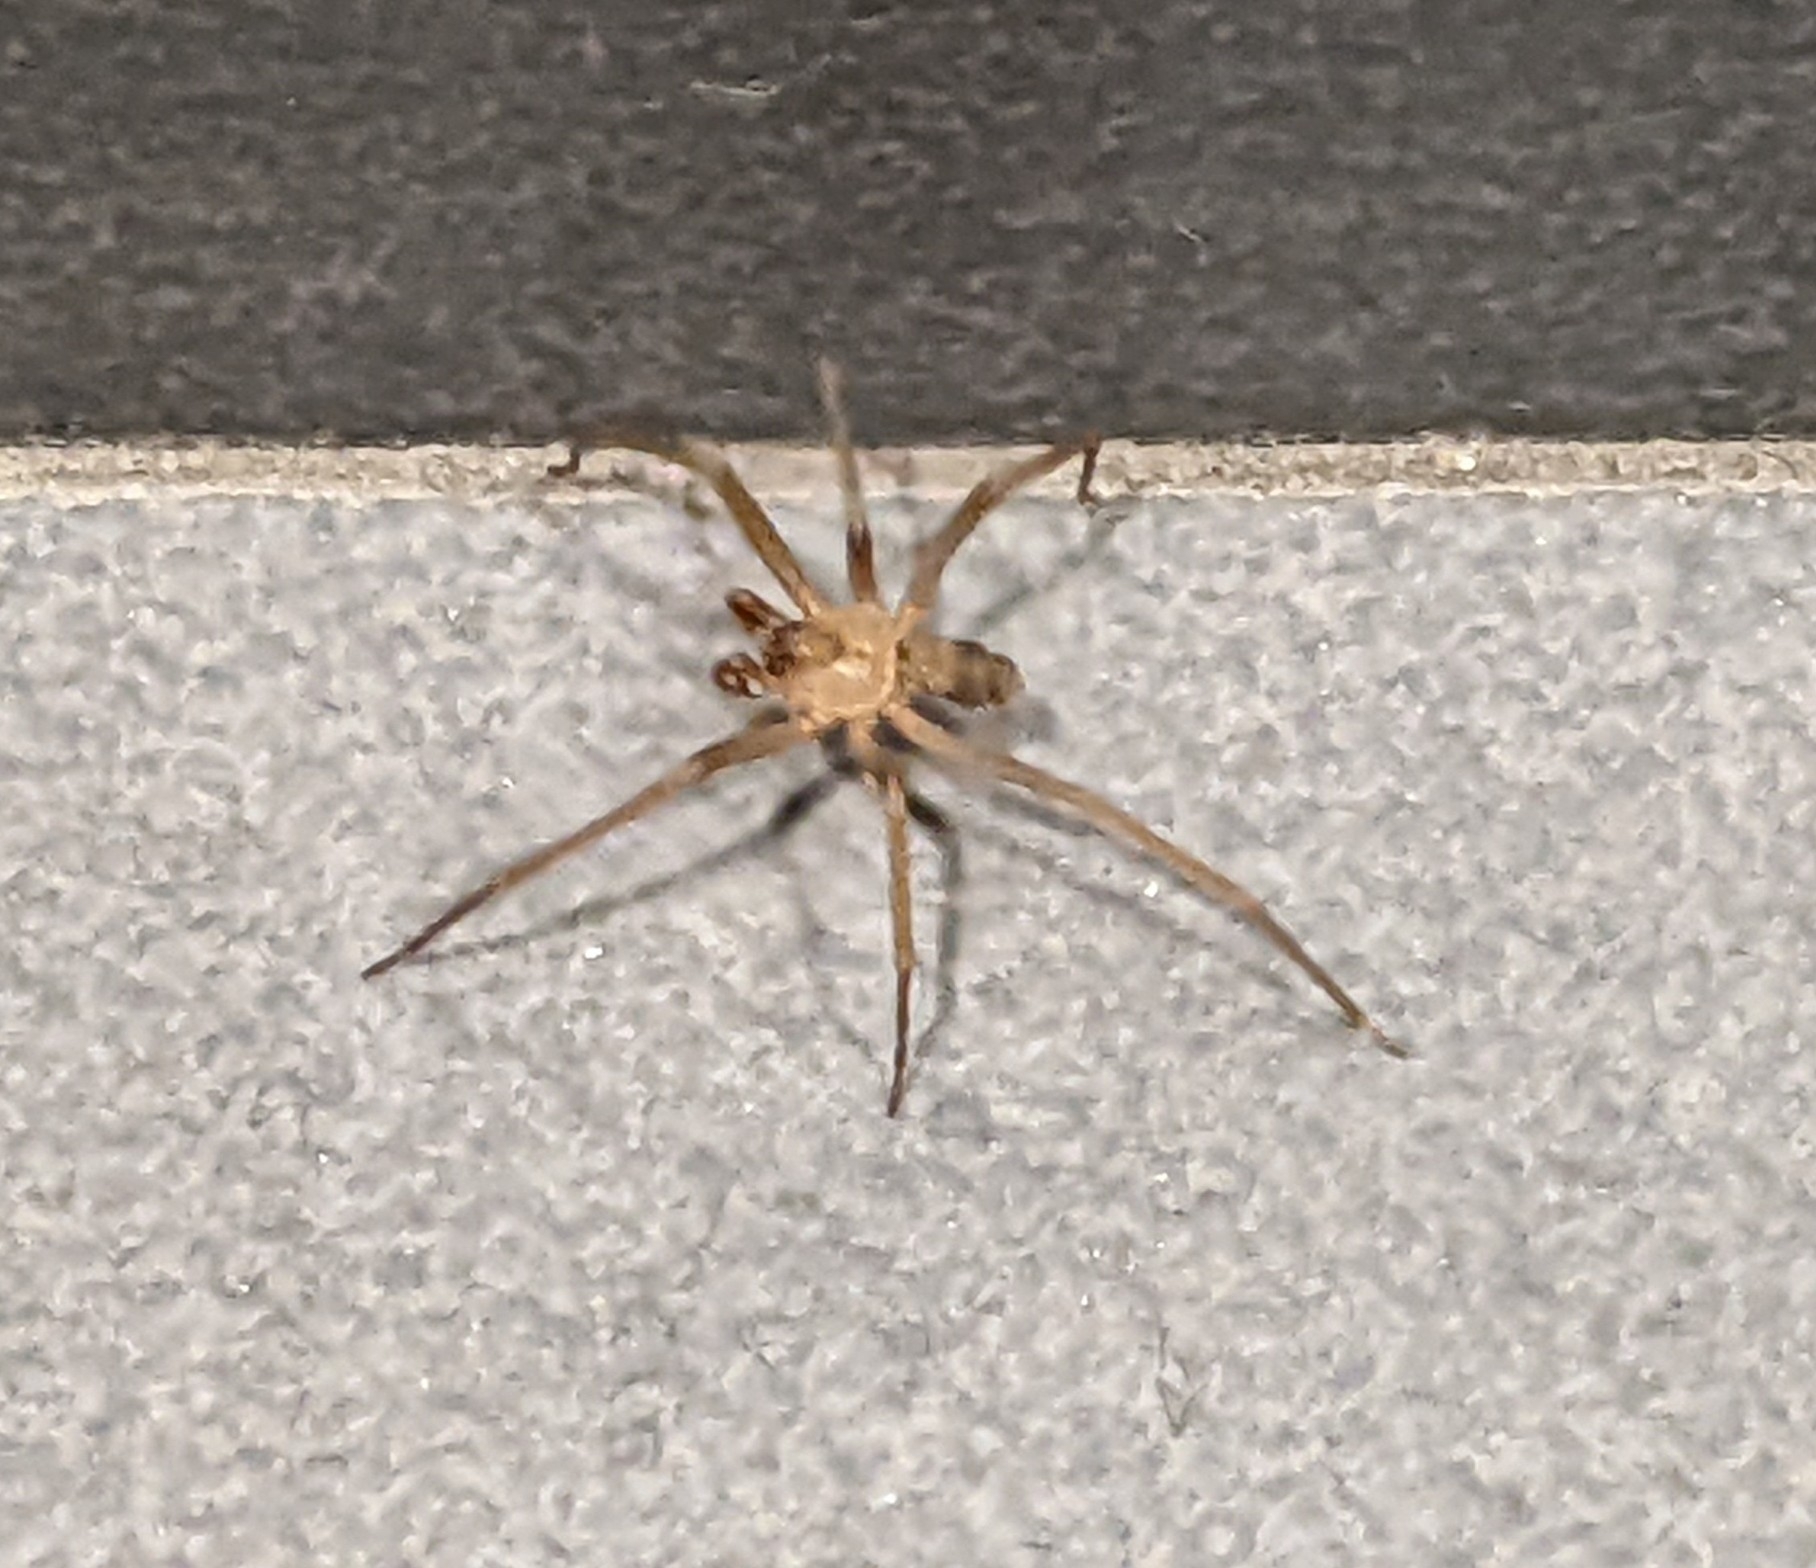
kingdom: Animalia
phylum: Arthropoda
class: Arachnida
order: Araneae
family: Sicariidae
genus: Loxosceles
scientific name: Loxosceles reclusa
